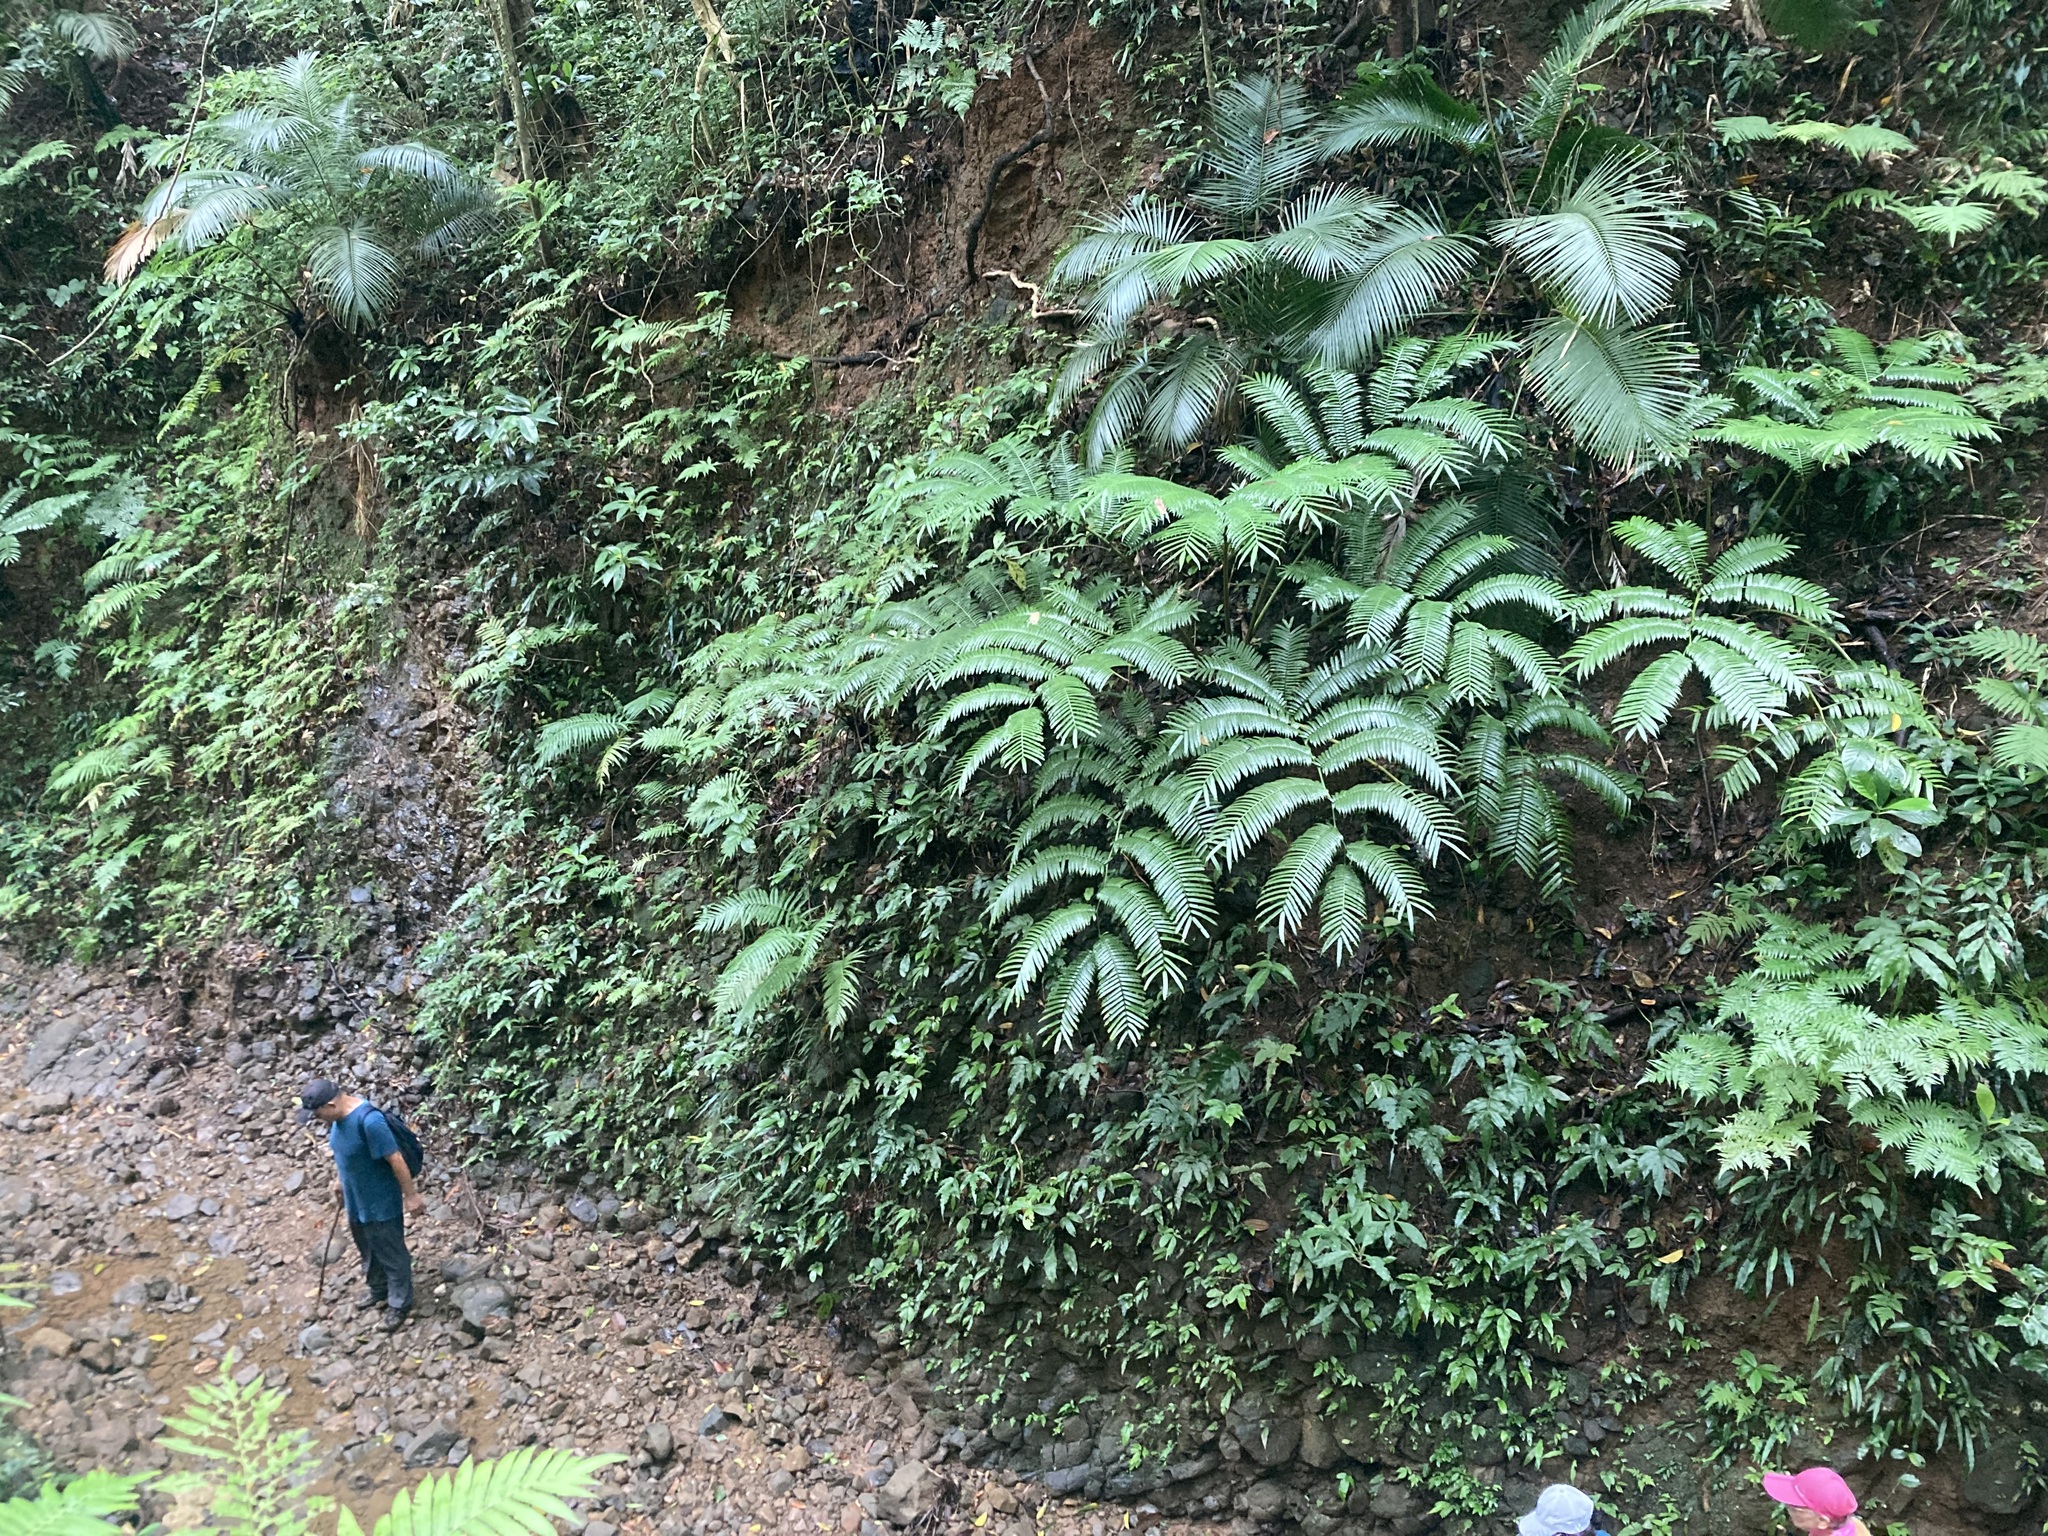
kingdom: Plantae
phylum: Tracheophyta
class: Polypodiopsida
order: Marattiales
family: Marattiaceae
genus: Angiopteris
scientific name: Angiopteris angustifolia
